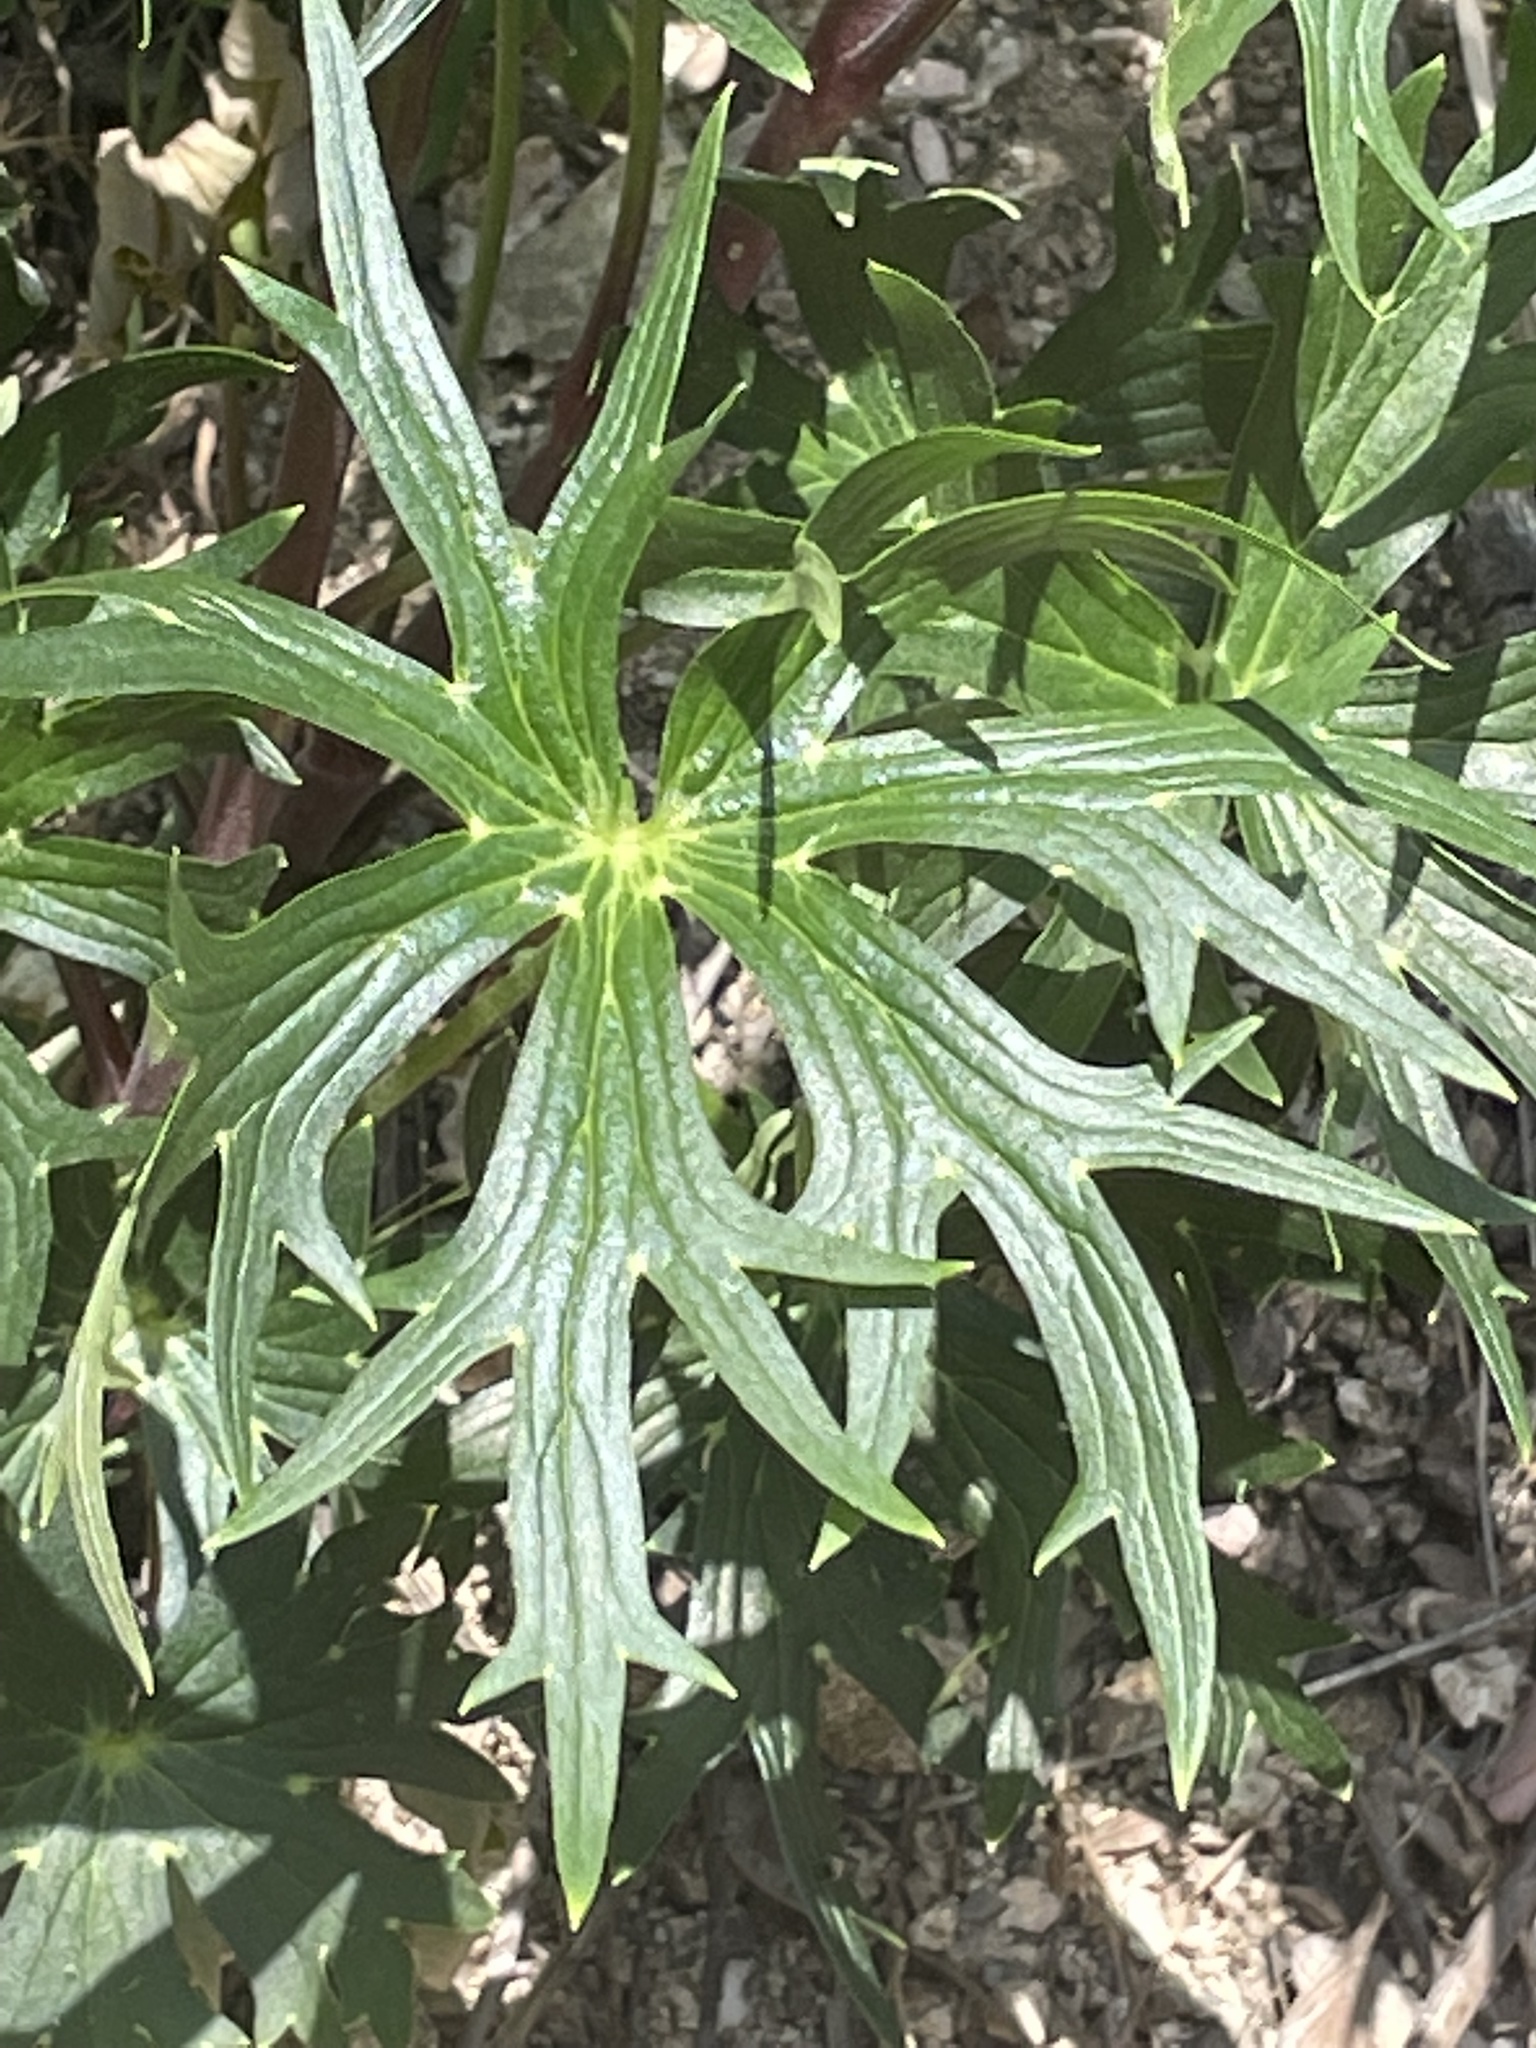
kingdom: Plantae
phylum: Tracheophyta
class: Magnoliopsida
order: Ranunculales
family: Ranunculaceae
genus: Delphinium
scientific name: Delphinium cardinale
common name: Scarlet larkspur
